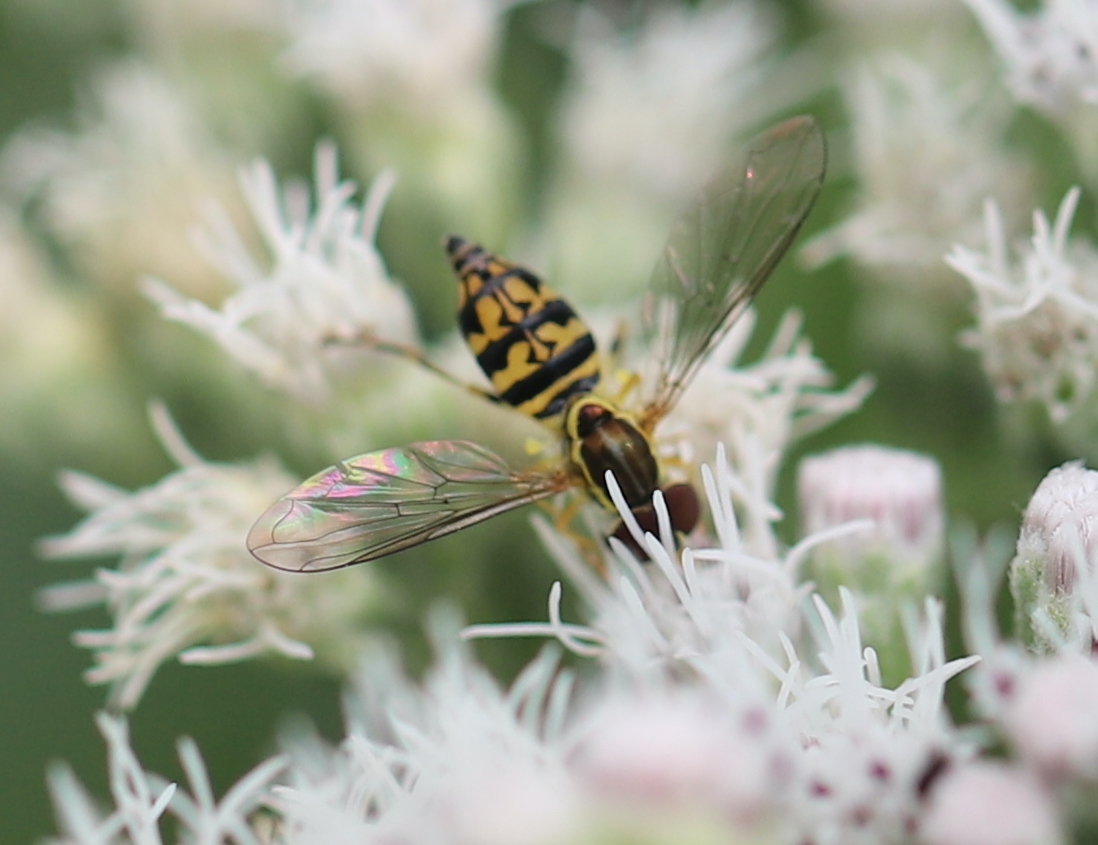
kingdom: Animalia
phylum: Arthropoda
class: Insecta
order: Diptera
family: Syrphidae
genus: Toxomerus
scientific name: Toxomerus geminatus
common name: Eastern calligrapher
